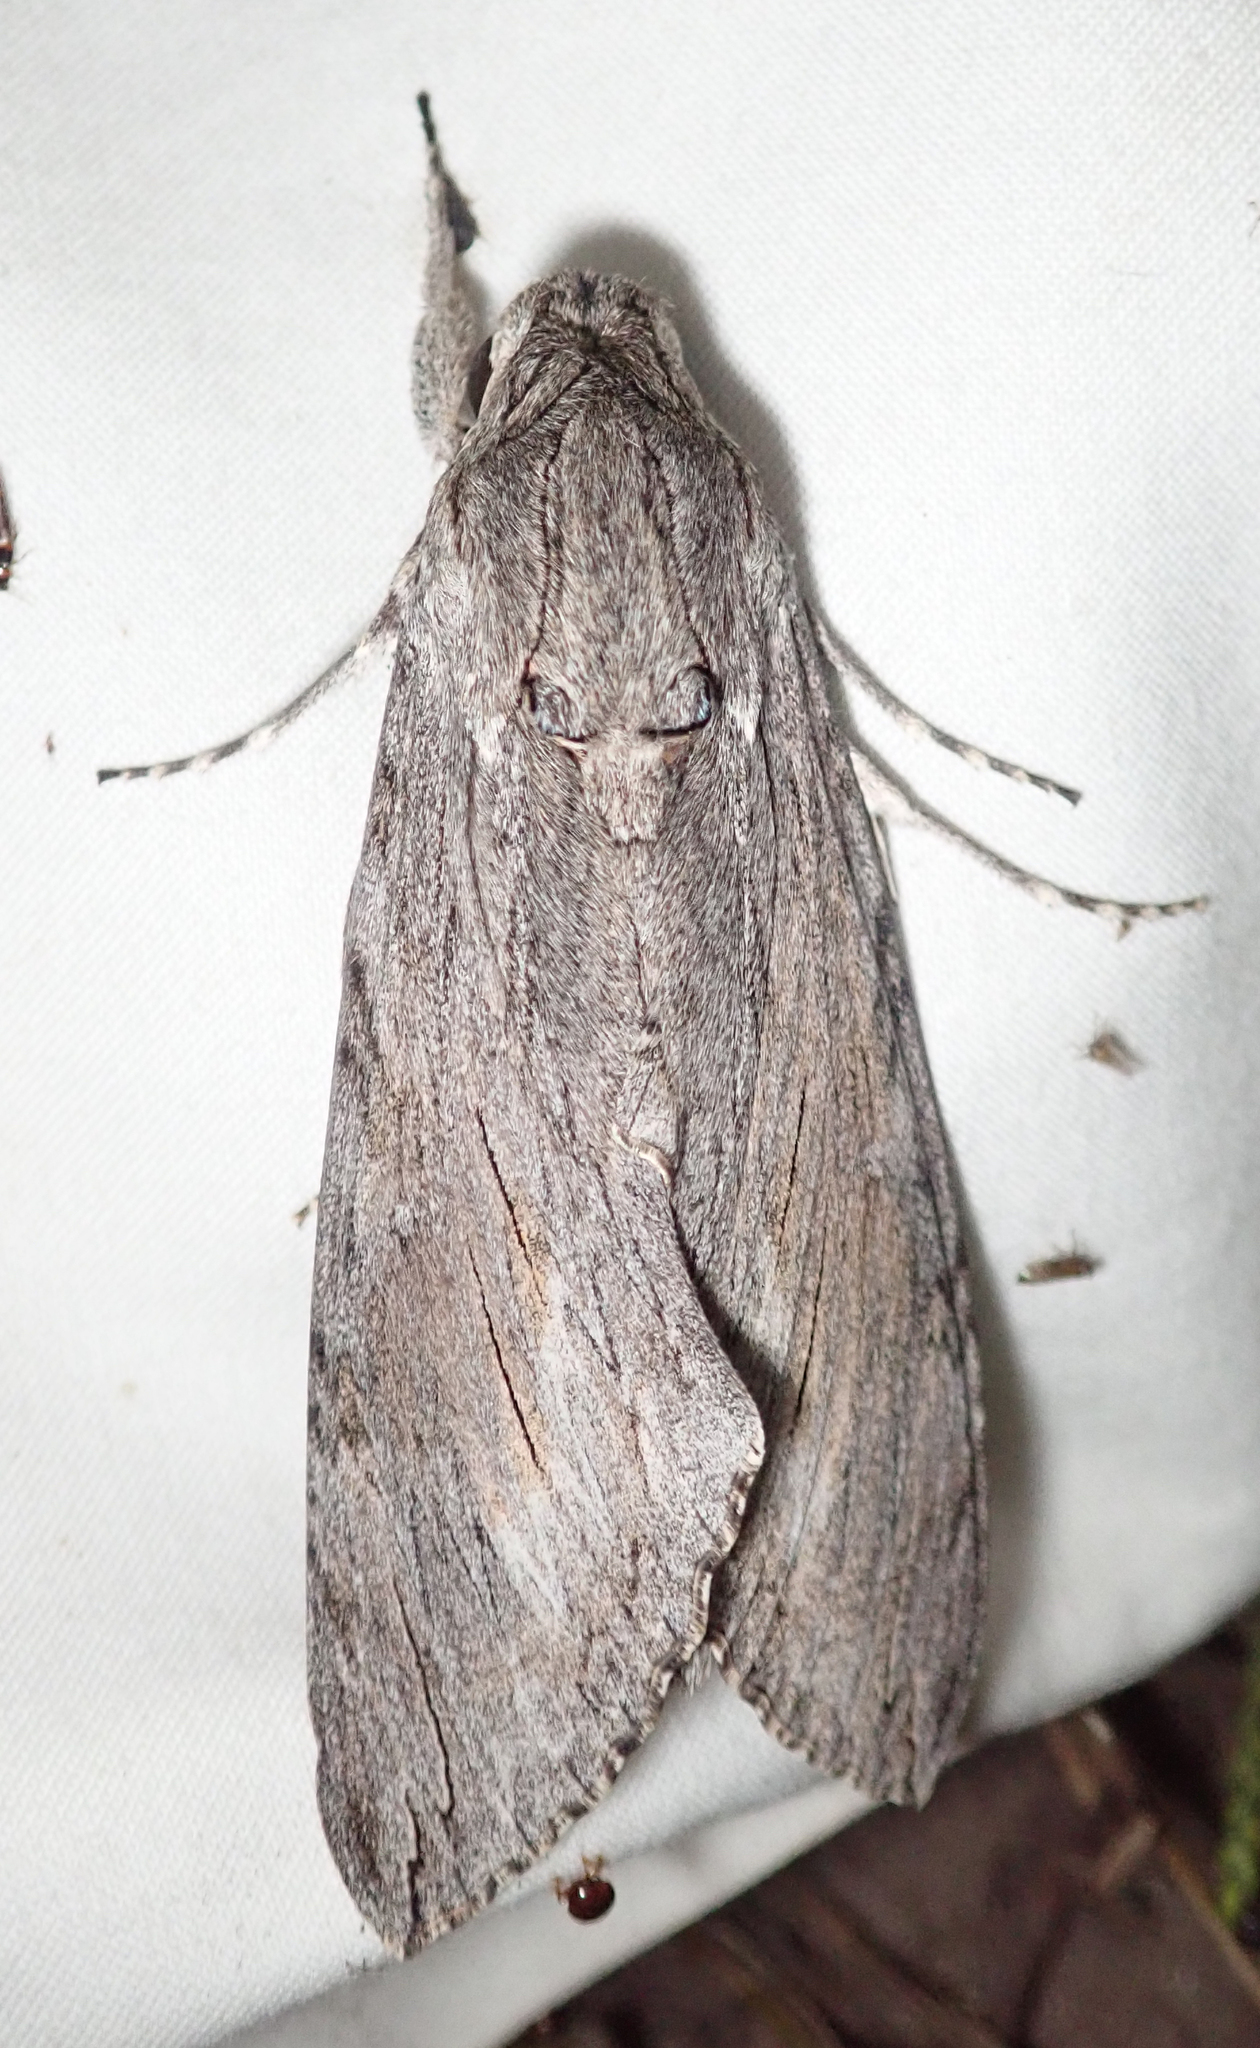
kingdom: Animalia
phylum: Arthropoda
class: Insecta
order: Lepidoptera
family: Sphingidae
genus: Agrius
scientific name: Agrius convolvuli
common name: Convolvulus hawkmoth
